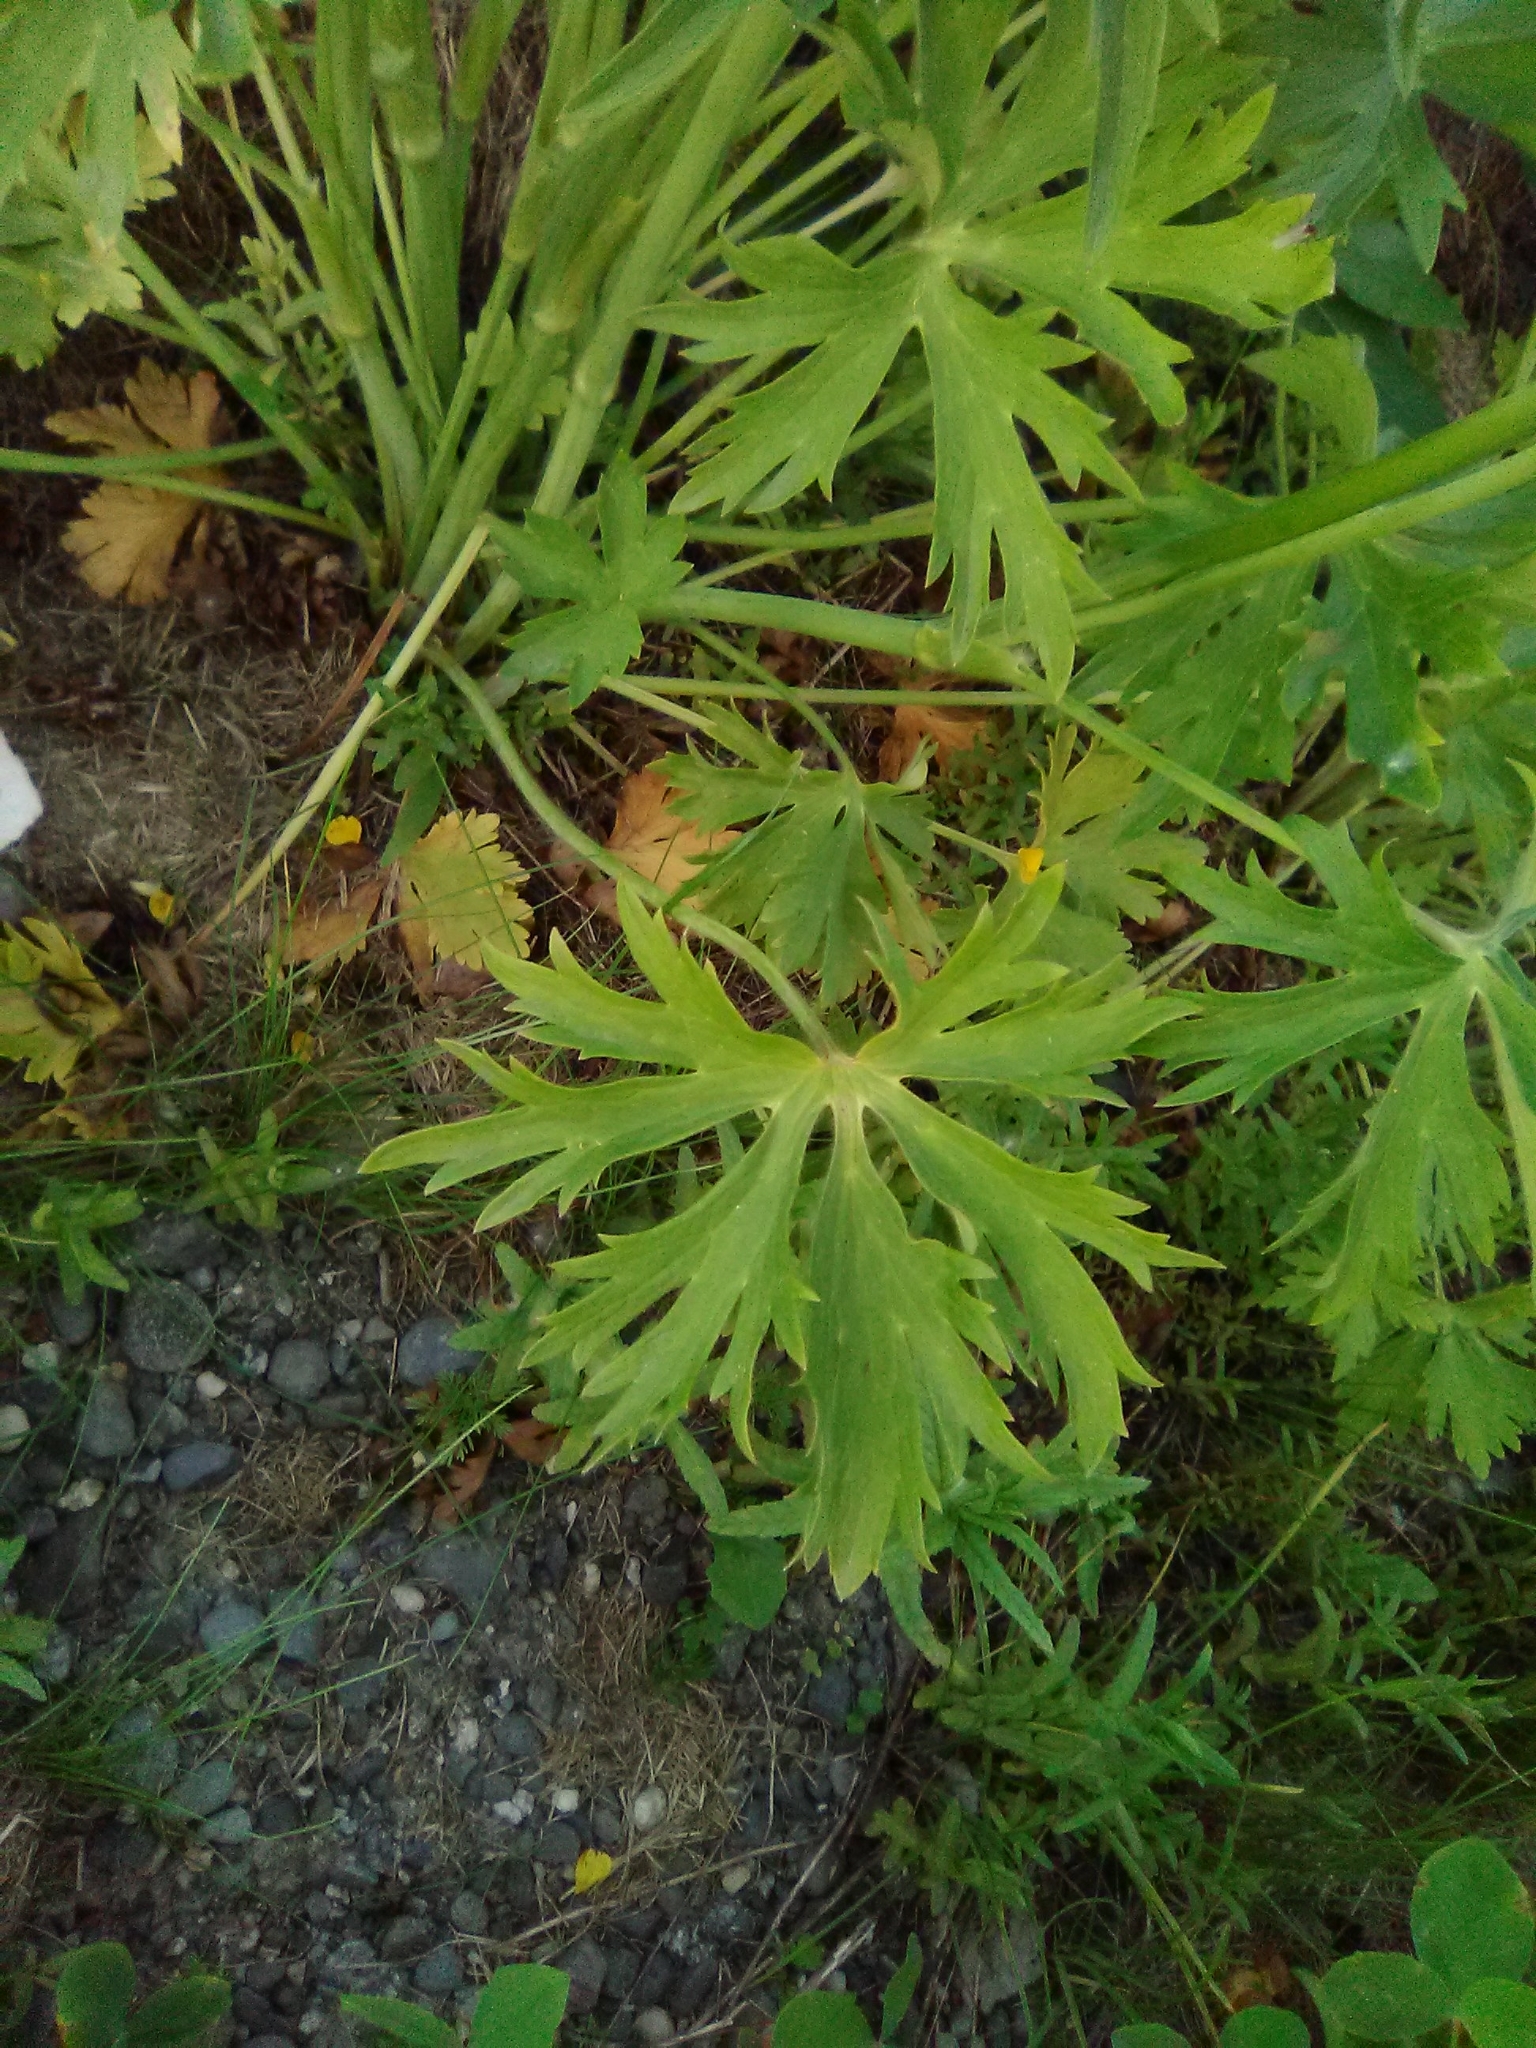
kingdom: Plantae
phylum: Tracheophyta
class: Magnoliopsida
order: Ranunculales
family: Ranunculaceae
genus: Ranunculus
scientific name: Ranunculus acris
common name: Meadow buttercup
